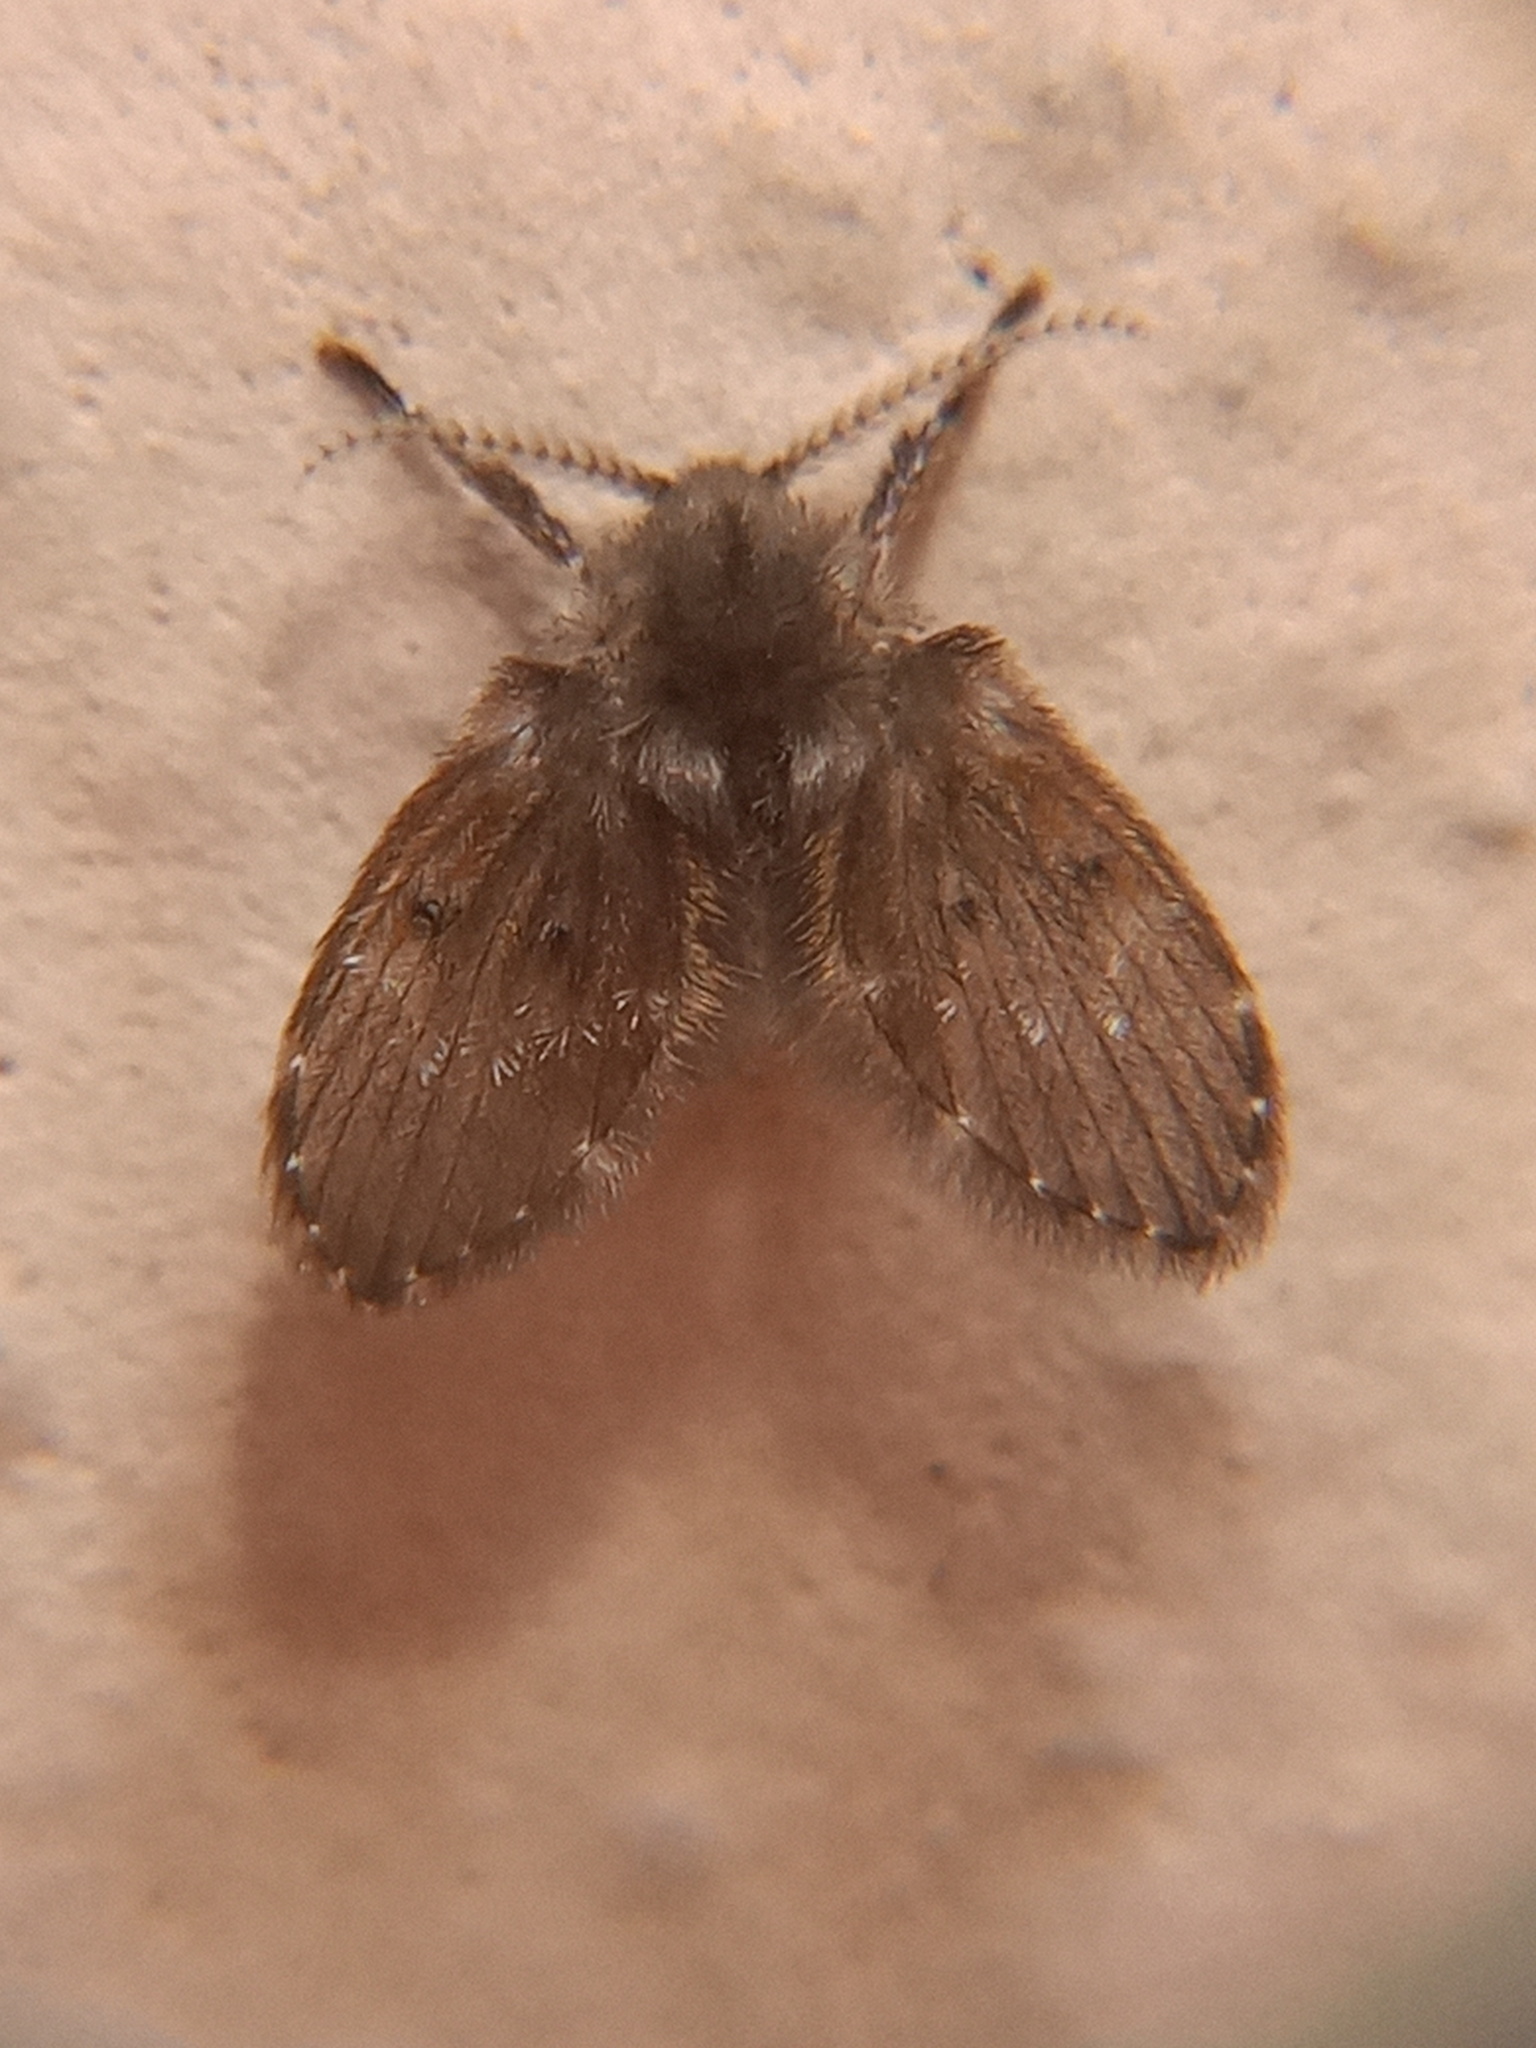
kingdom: Animalia
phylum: Arthropoda
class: Insecta
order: Diptera
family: Psychodidae
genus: Clogmia
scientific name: Clogmia albipunctatus
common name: White-spotted moth fly
